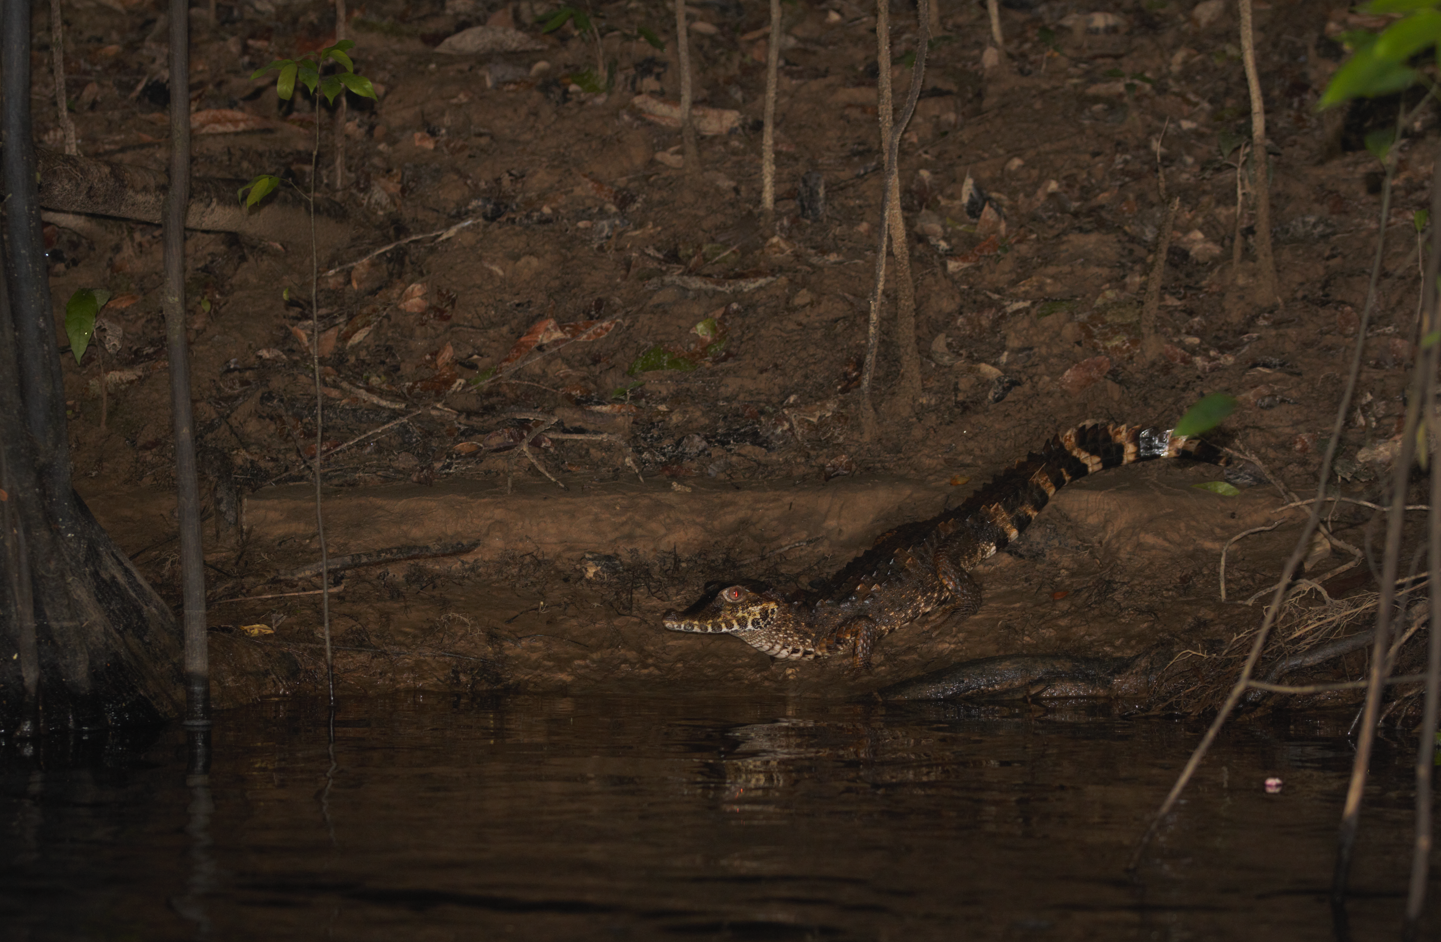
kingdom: Animalia
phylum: Chordata
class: Crocodylia
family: Alligatoridae
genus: Paleosuchus
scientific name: Paleosuchus trigonatus
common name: Schneider's smooth-fronted caiman
